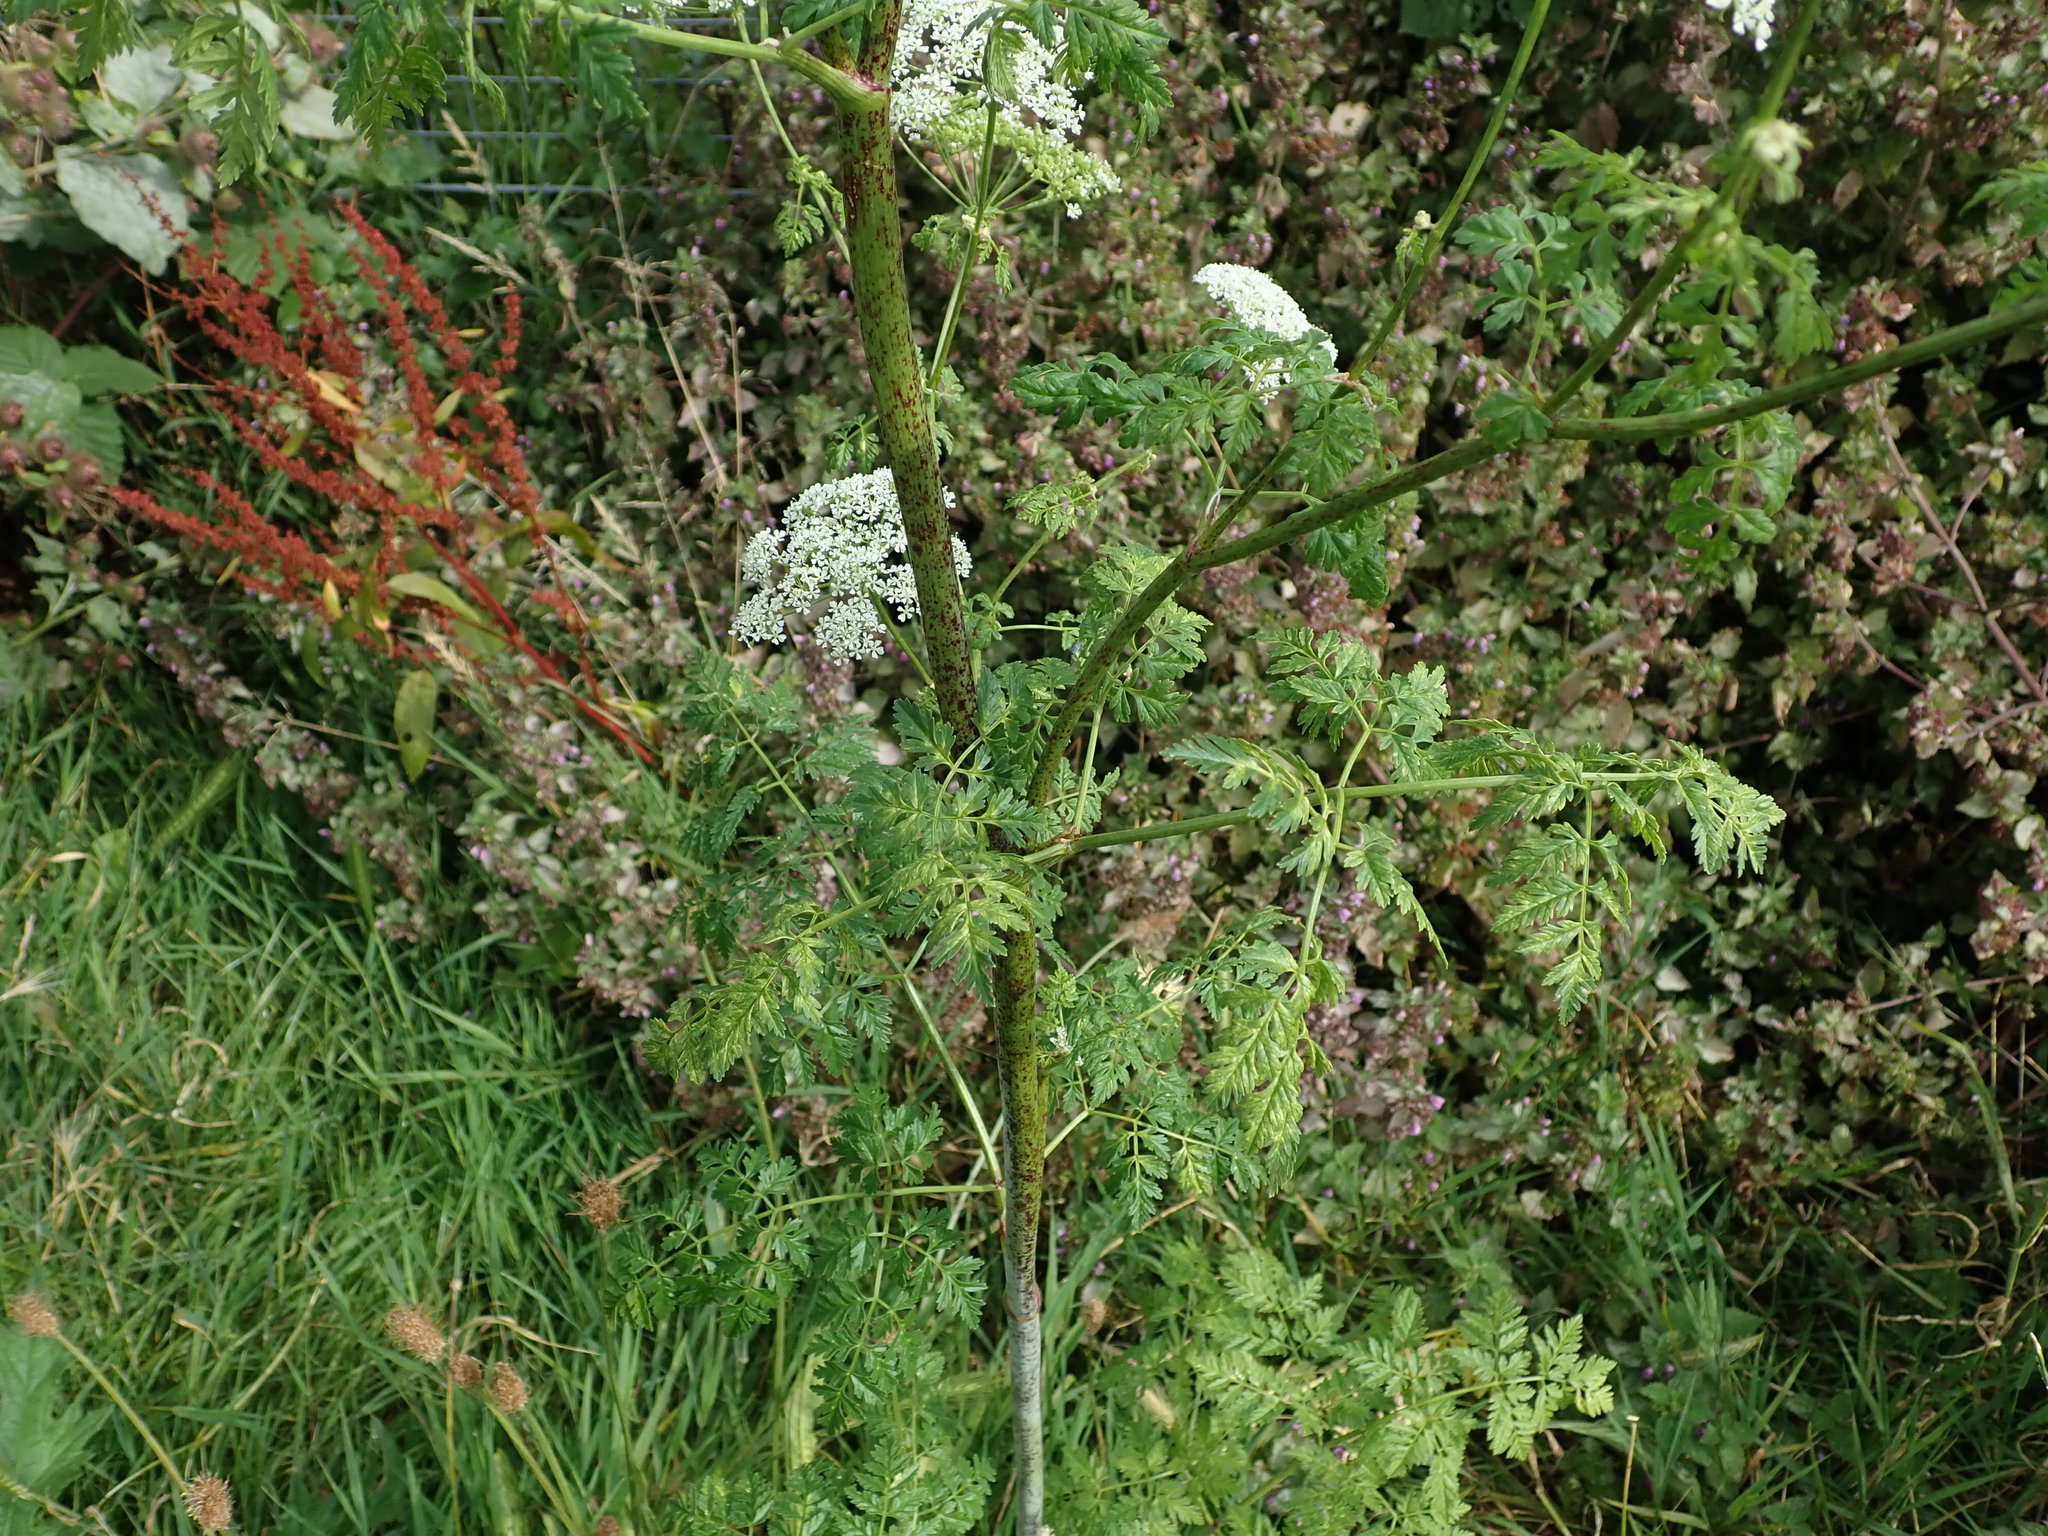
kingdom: Plantae
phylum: Tracheophyta
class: Magnoliopsida
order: Apiales
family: Apiaceae
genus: Conium
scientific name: Conium maculatum
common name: Hemlock
